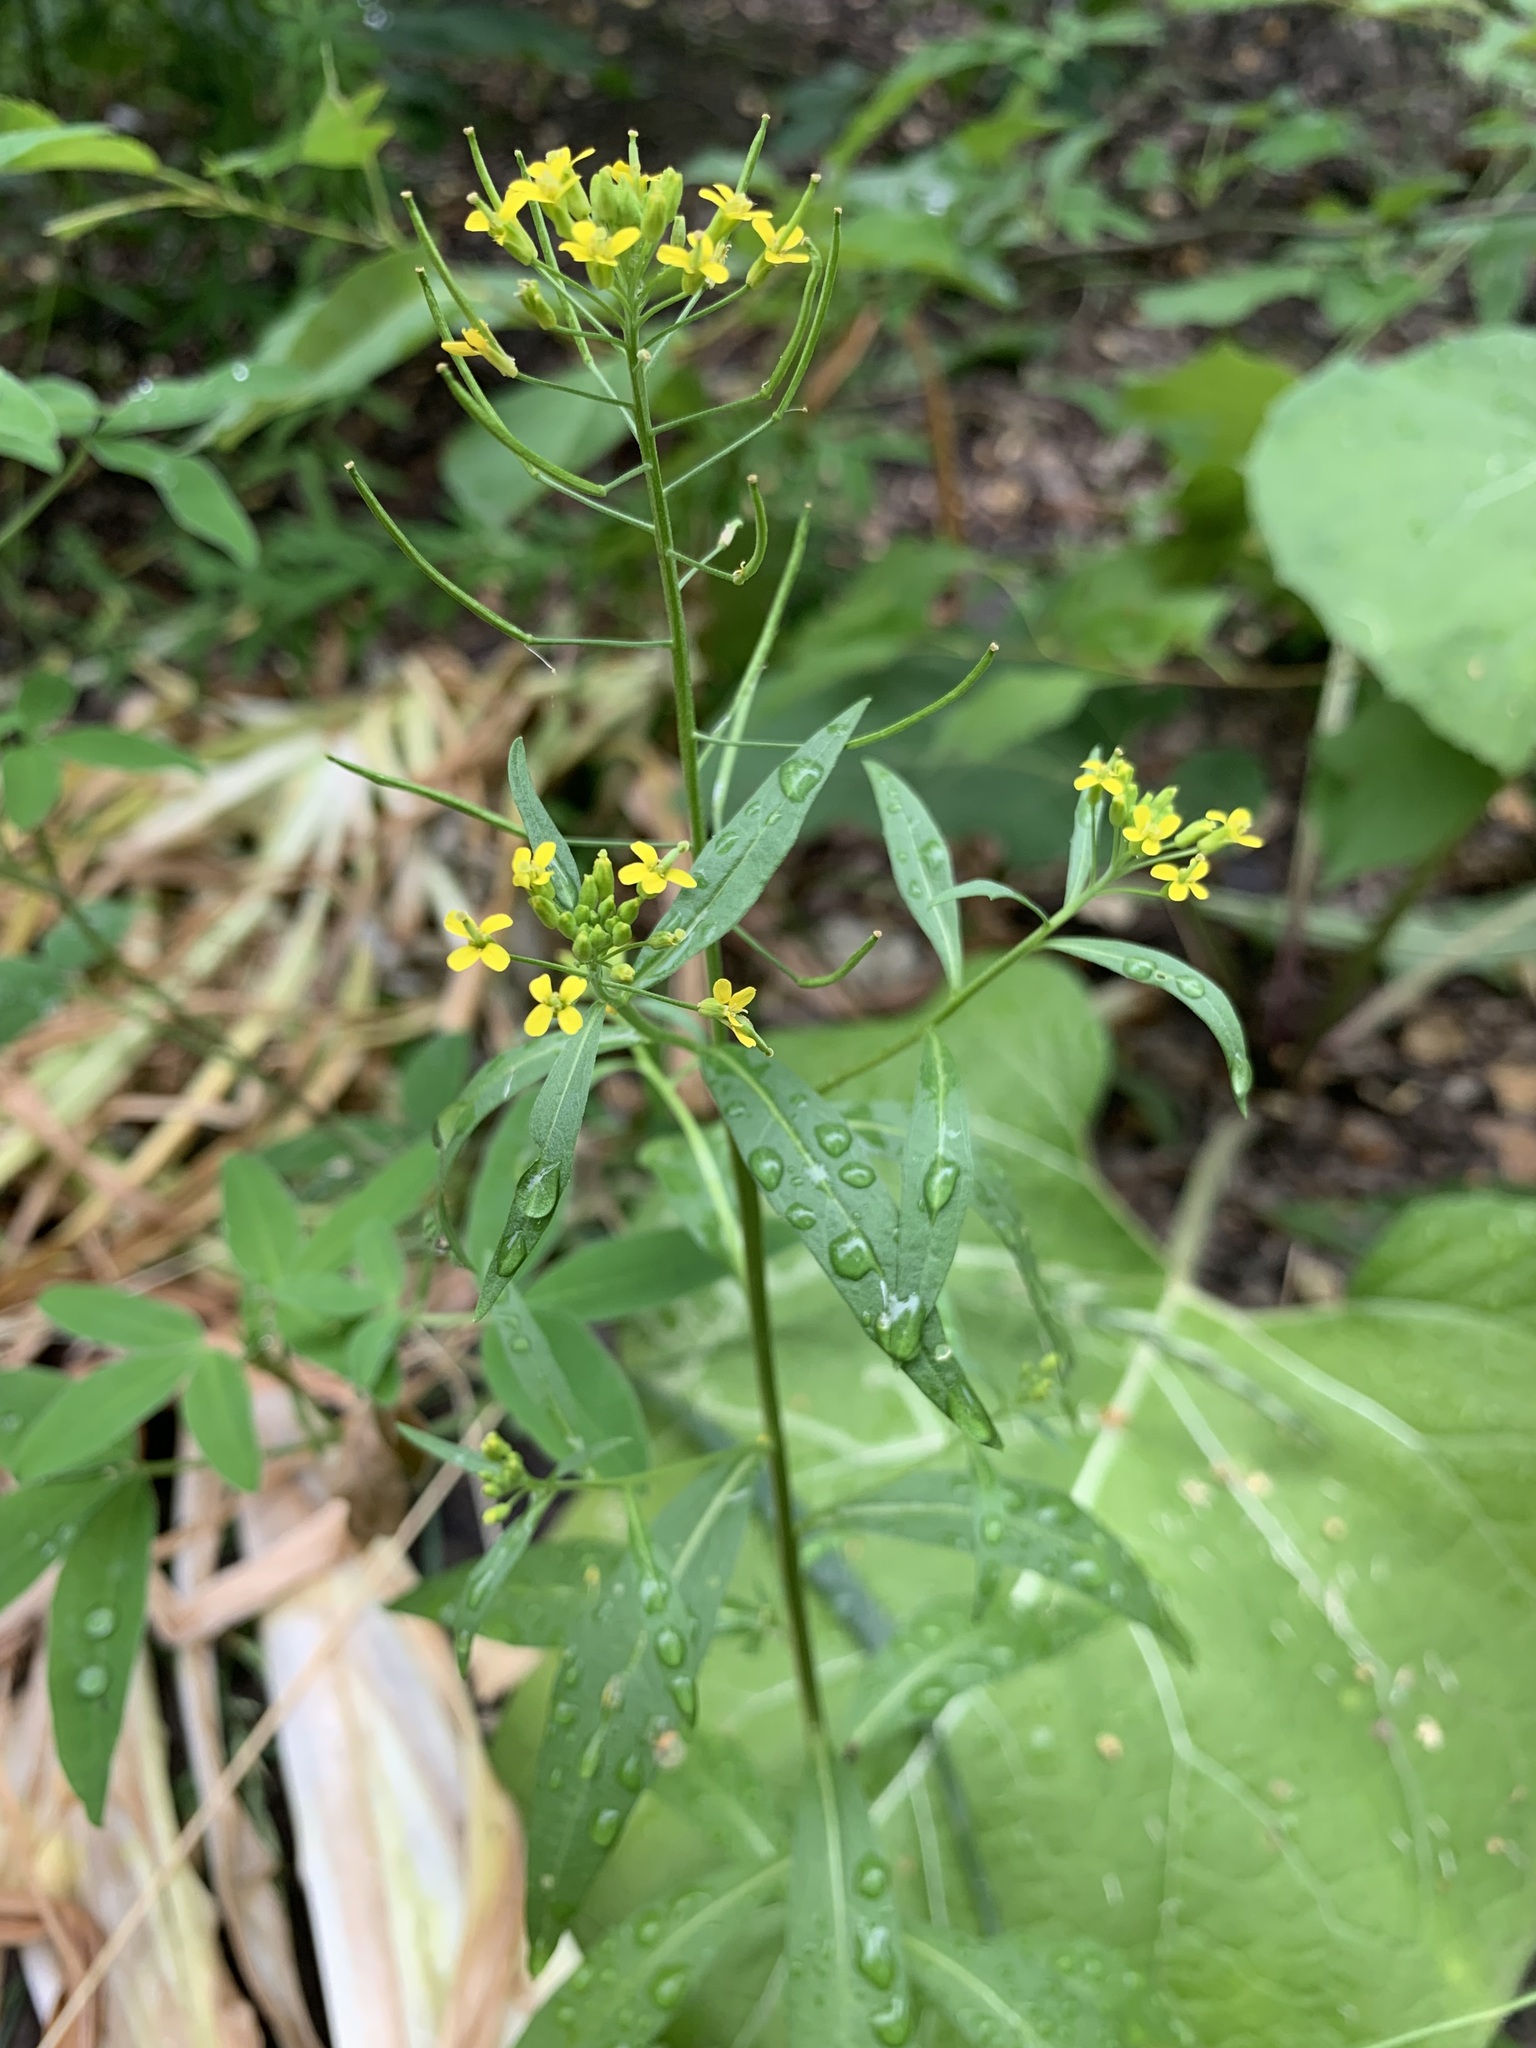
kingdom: Plantae
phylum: Tracheophyta
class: Magnoliopsida
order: Brassicales
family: Brassicaceae
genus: Erysimum
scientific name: Erysimum cheiranthoides
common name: Treacle mustard
